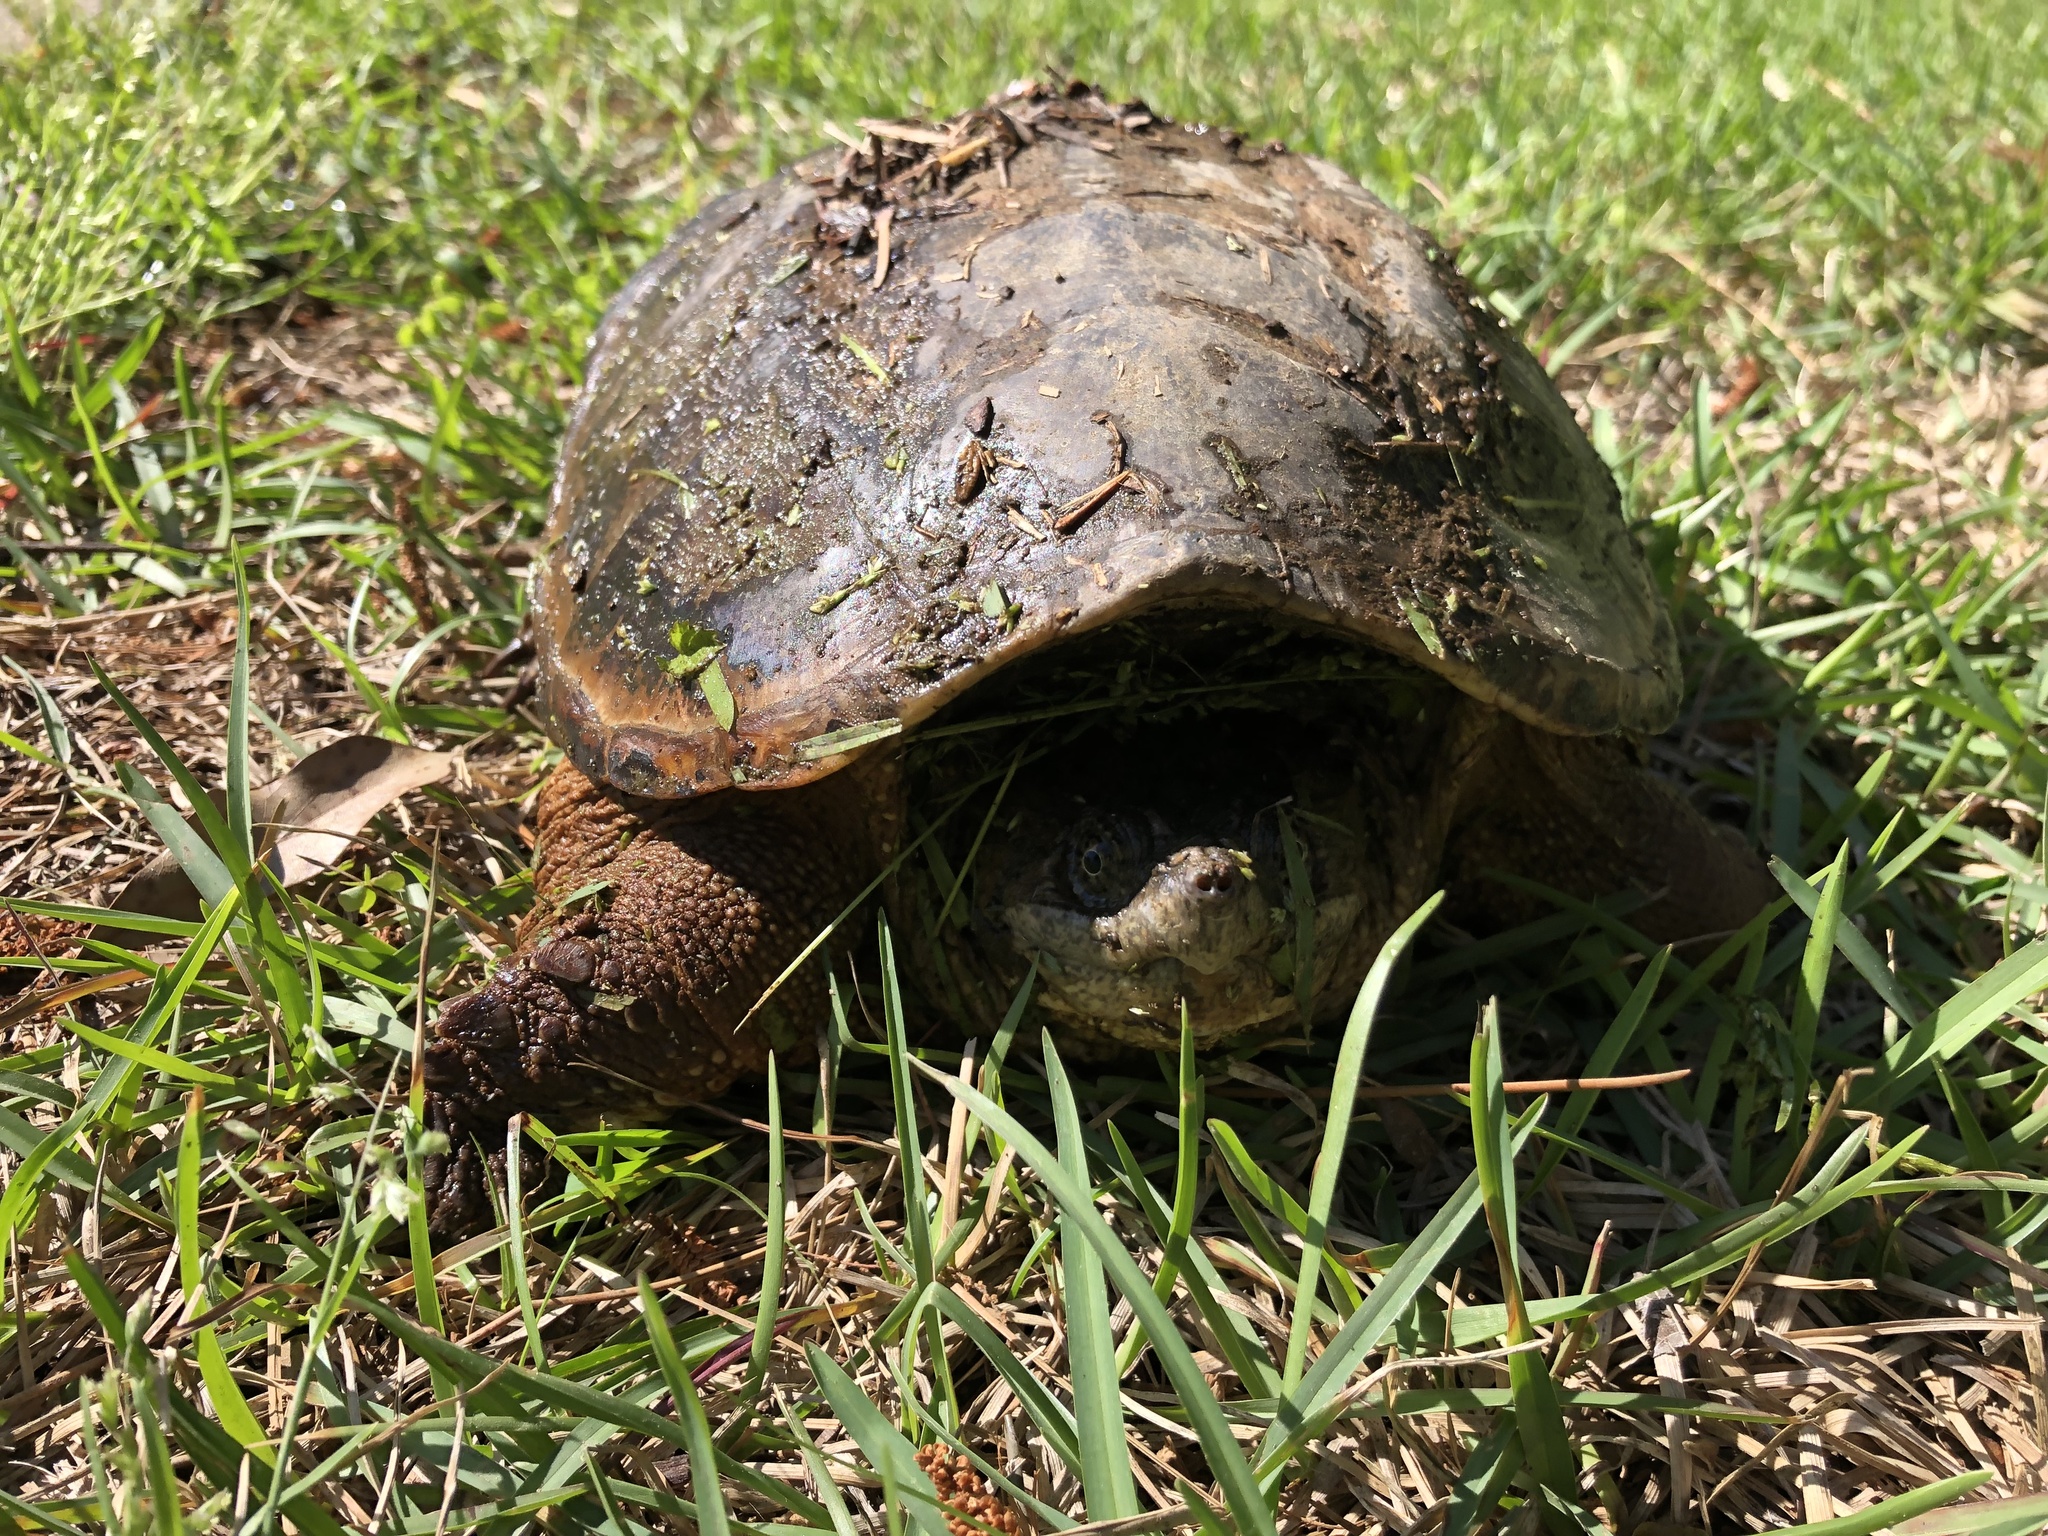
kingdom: Animalia
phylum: Chordata
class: Testudines
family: Chelydridae
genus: Chelydra
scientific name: Chelydra serpentina
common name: Common snapping turtle
